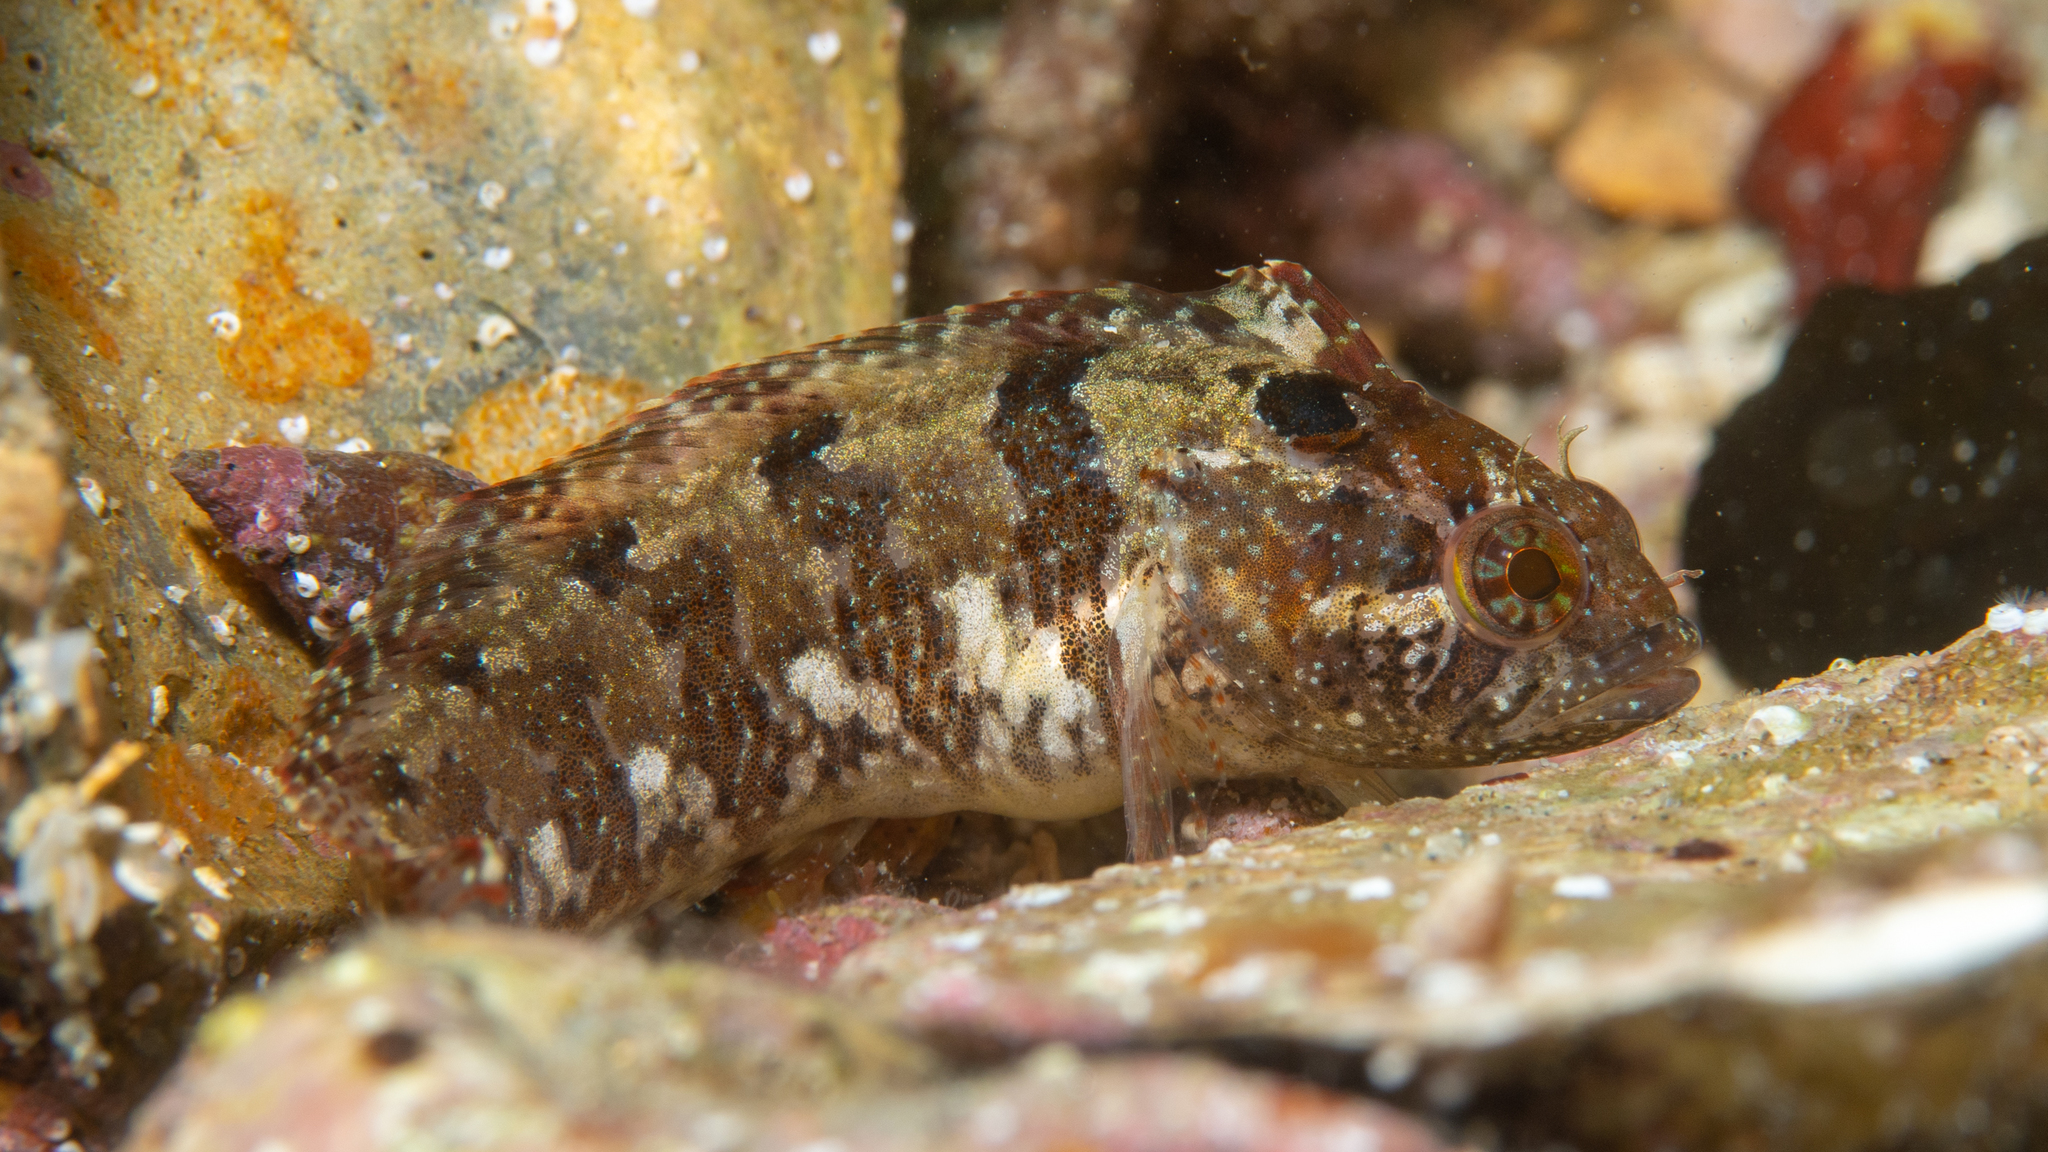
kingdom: Animalia
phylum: Chordata
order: Perciformes
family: Clinidae
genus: Heteroclinus
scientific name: Heteroclinus perspicillatus
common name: Common weedfish
